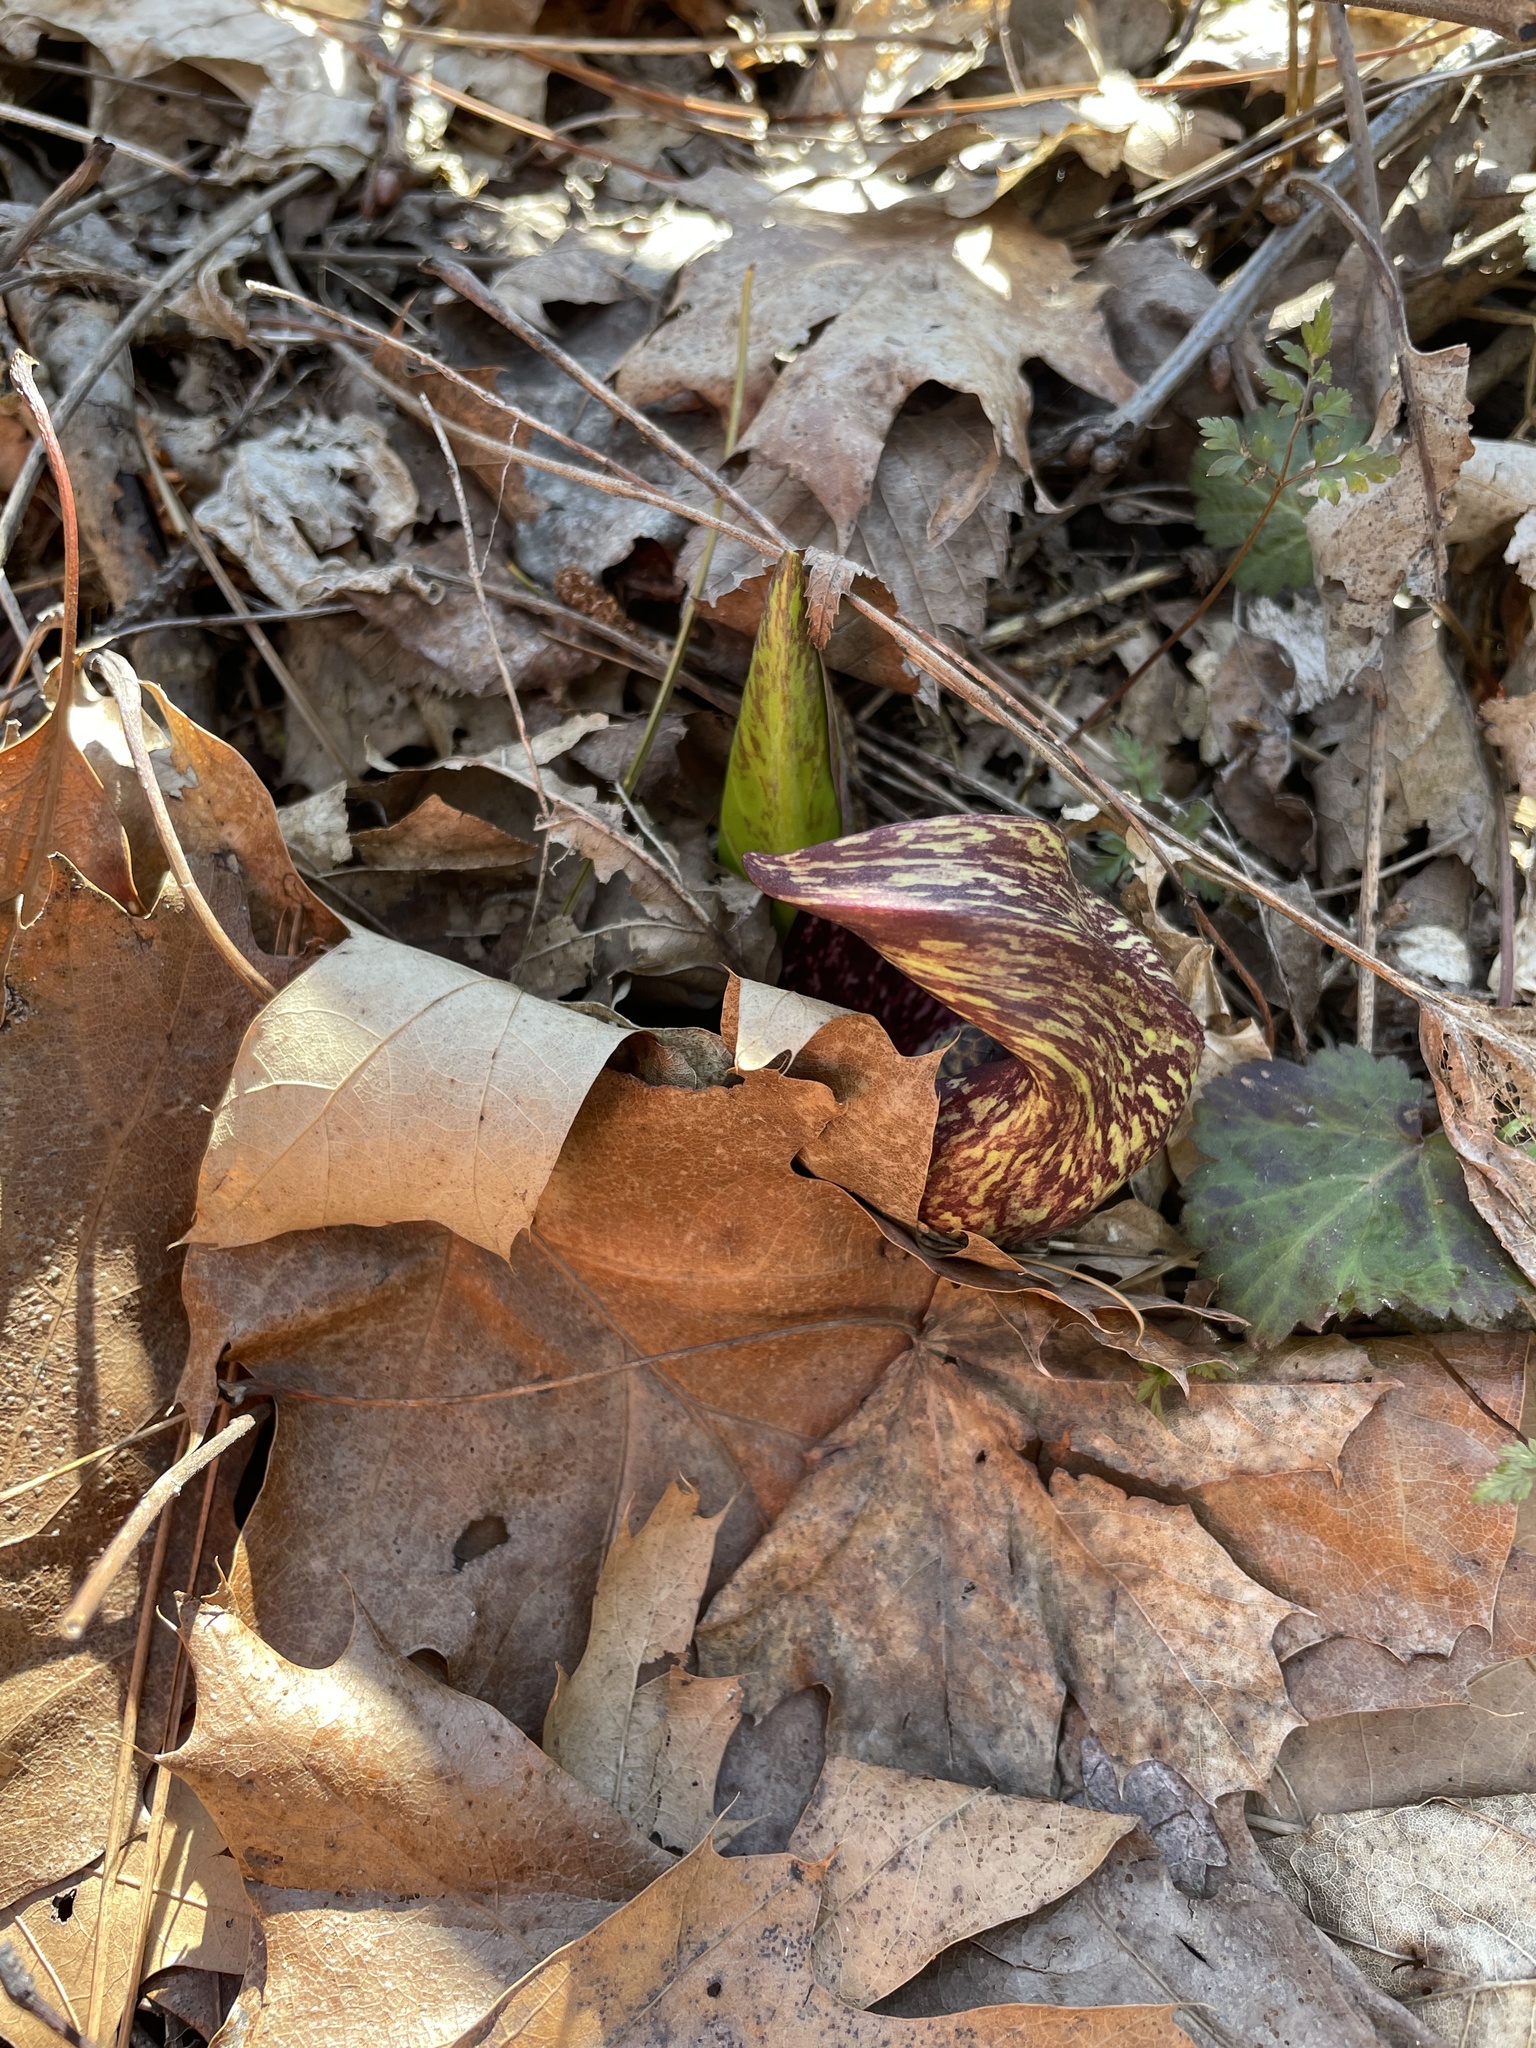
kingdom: Plantae
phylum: Tracheophyta
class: Liliopsida
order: Alismatales
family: Araceae
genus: Symplocarpus
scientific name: Symplocarpus foetidus
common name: Eastern skunk cabbage
